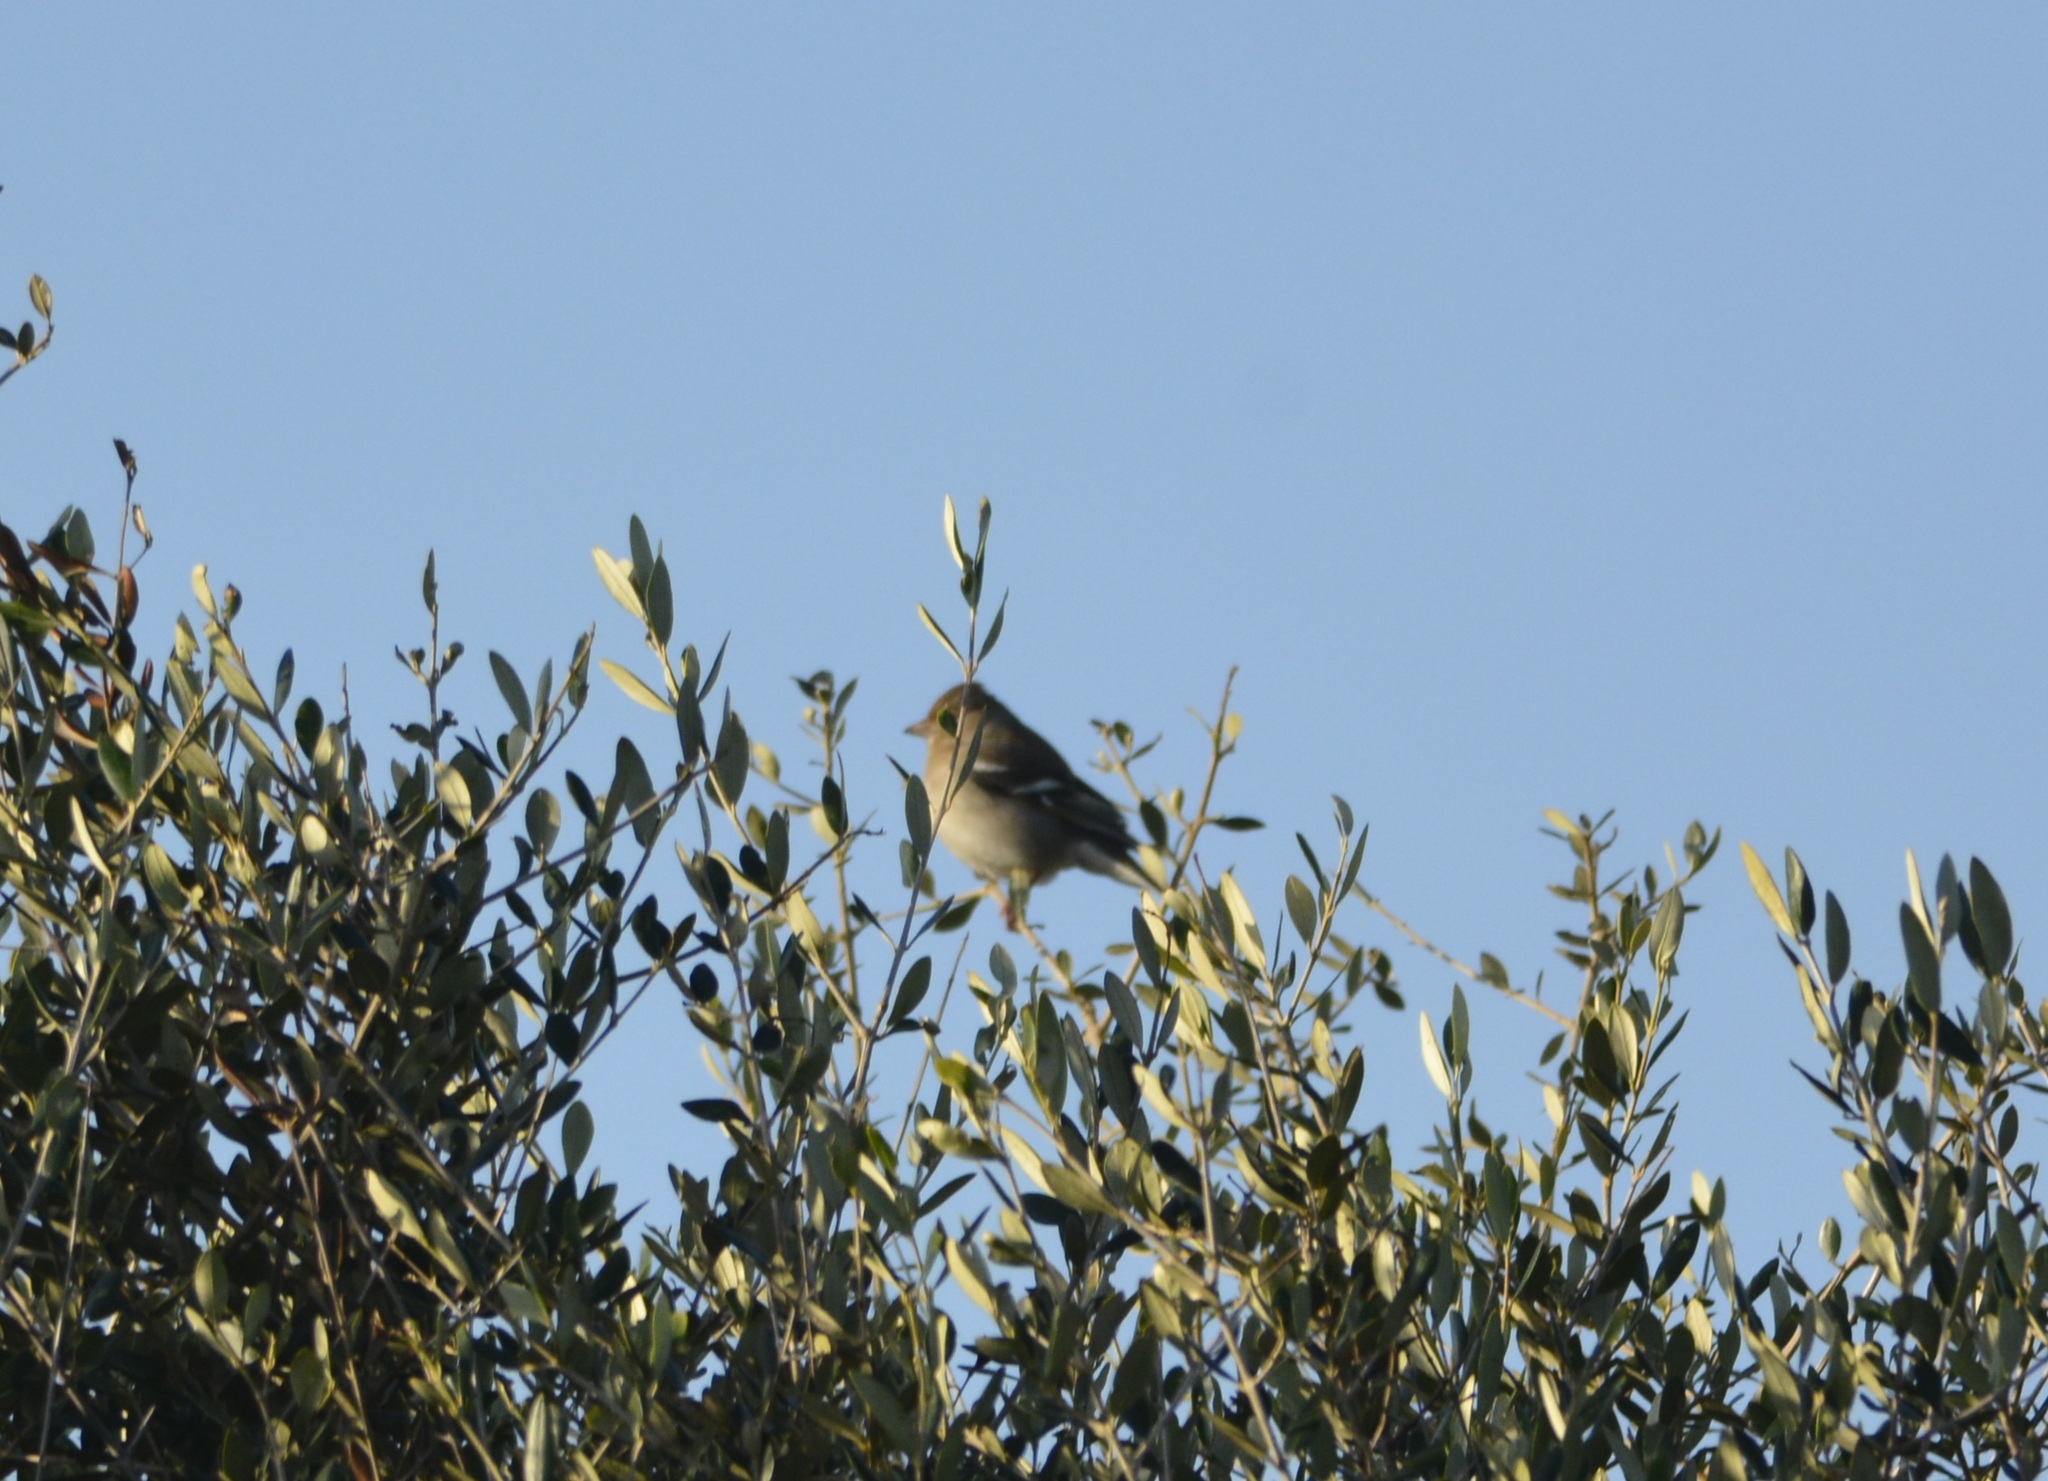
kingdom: Animalia
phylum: Chordata
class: Aves
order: Passeriformes
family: Fringillidae
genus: Fringilla
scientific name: Fringilla spodiogenys
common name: African chaffinch
